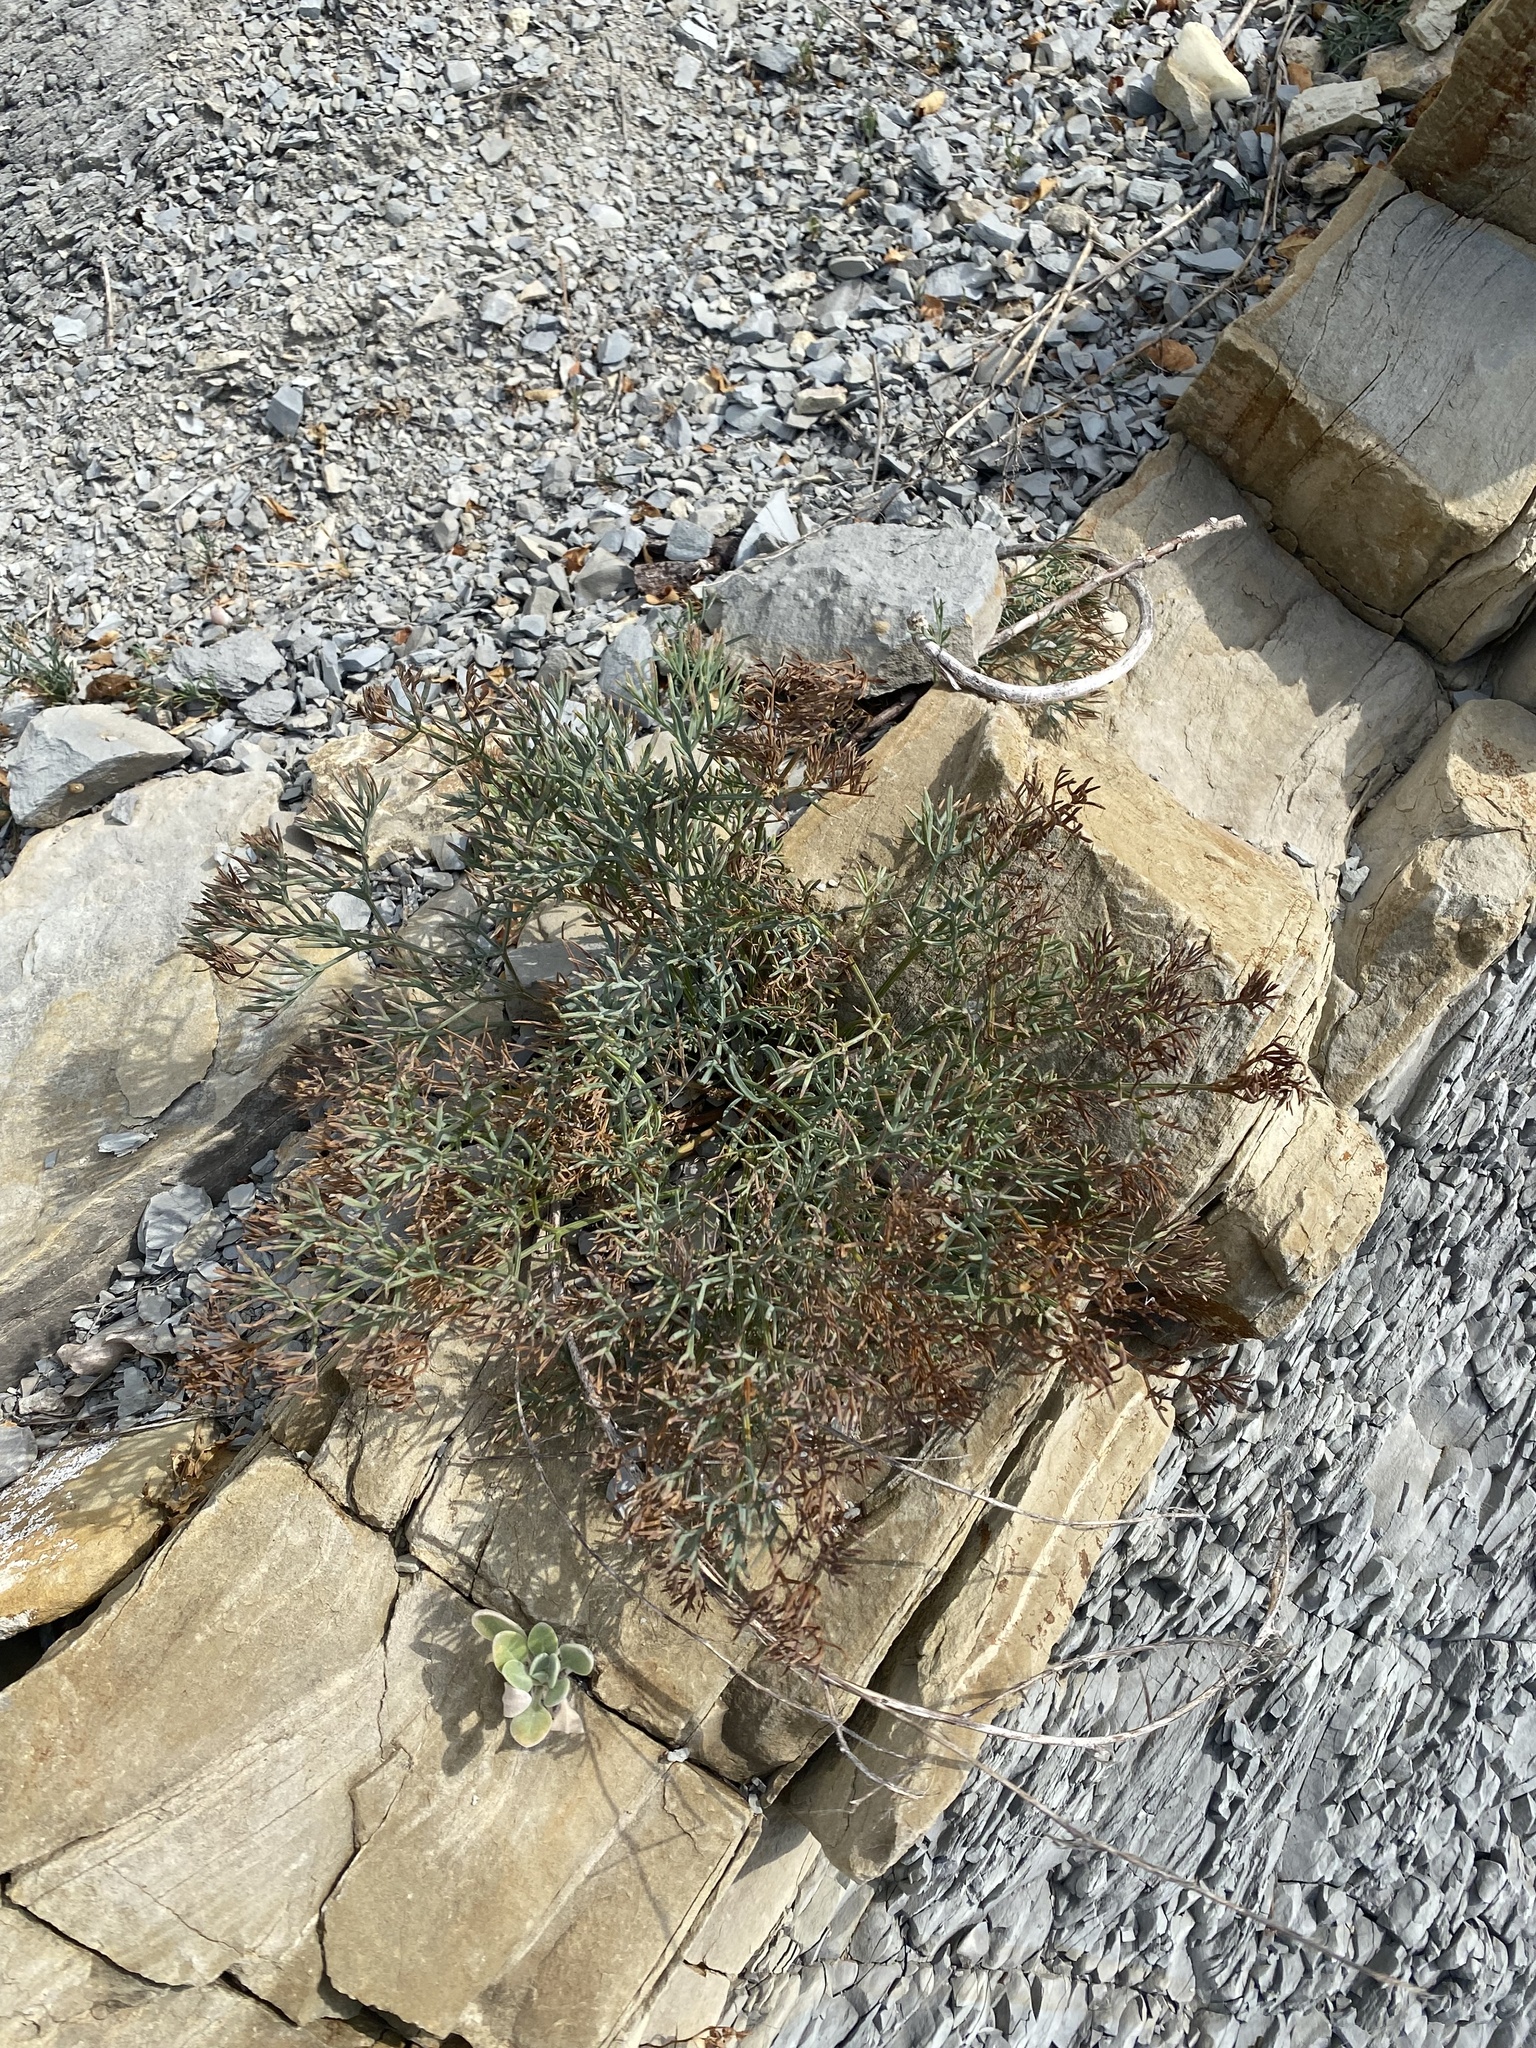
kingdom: Plantae
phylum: Tracheophyta
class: Magnoliopsida
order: Apiales
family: Apiaceae
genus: Seseli
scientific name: Seseli ponticum
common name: Pontic seseli
